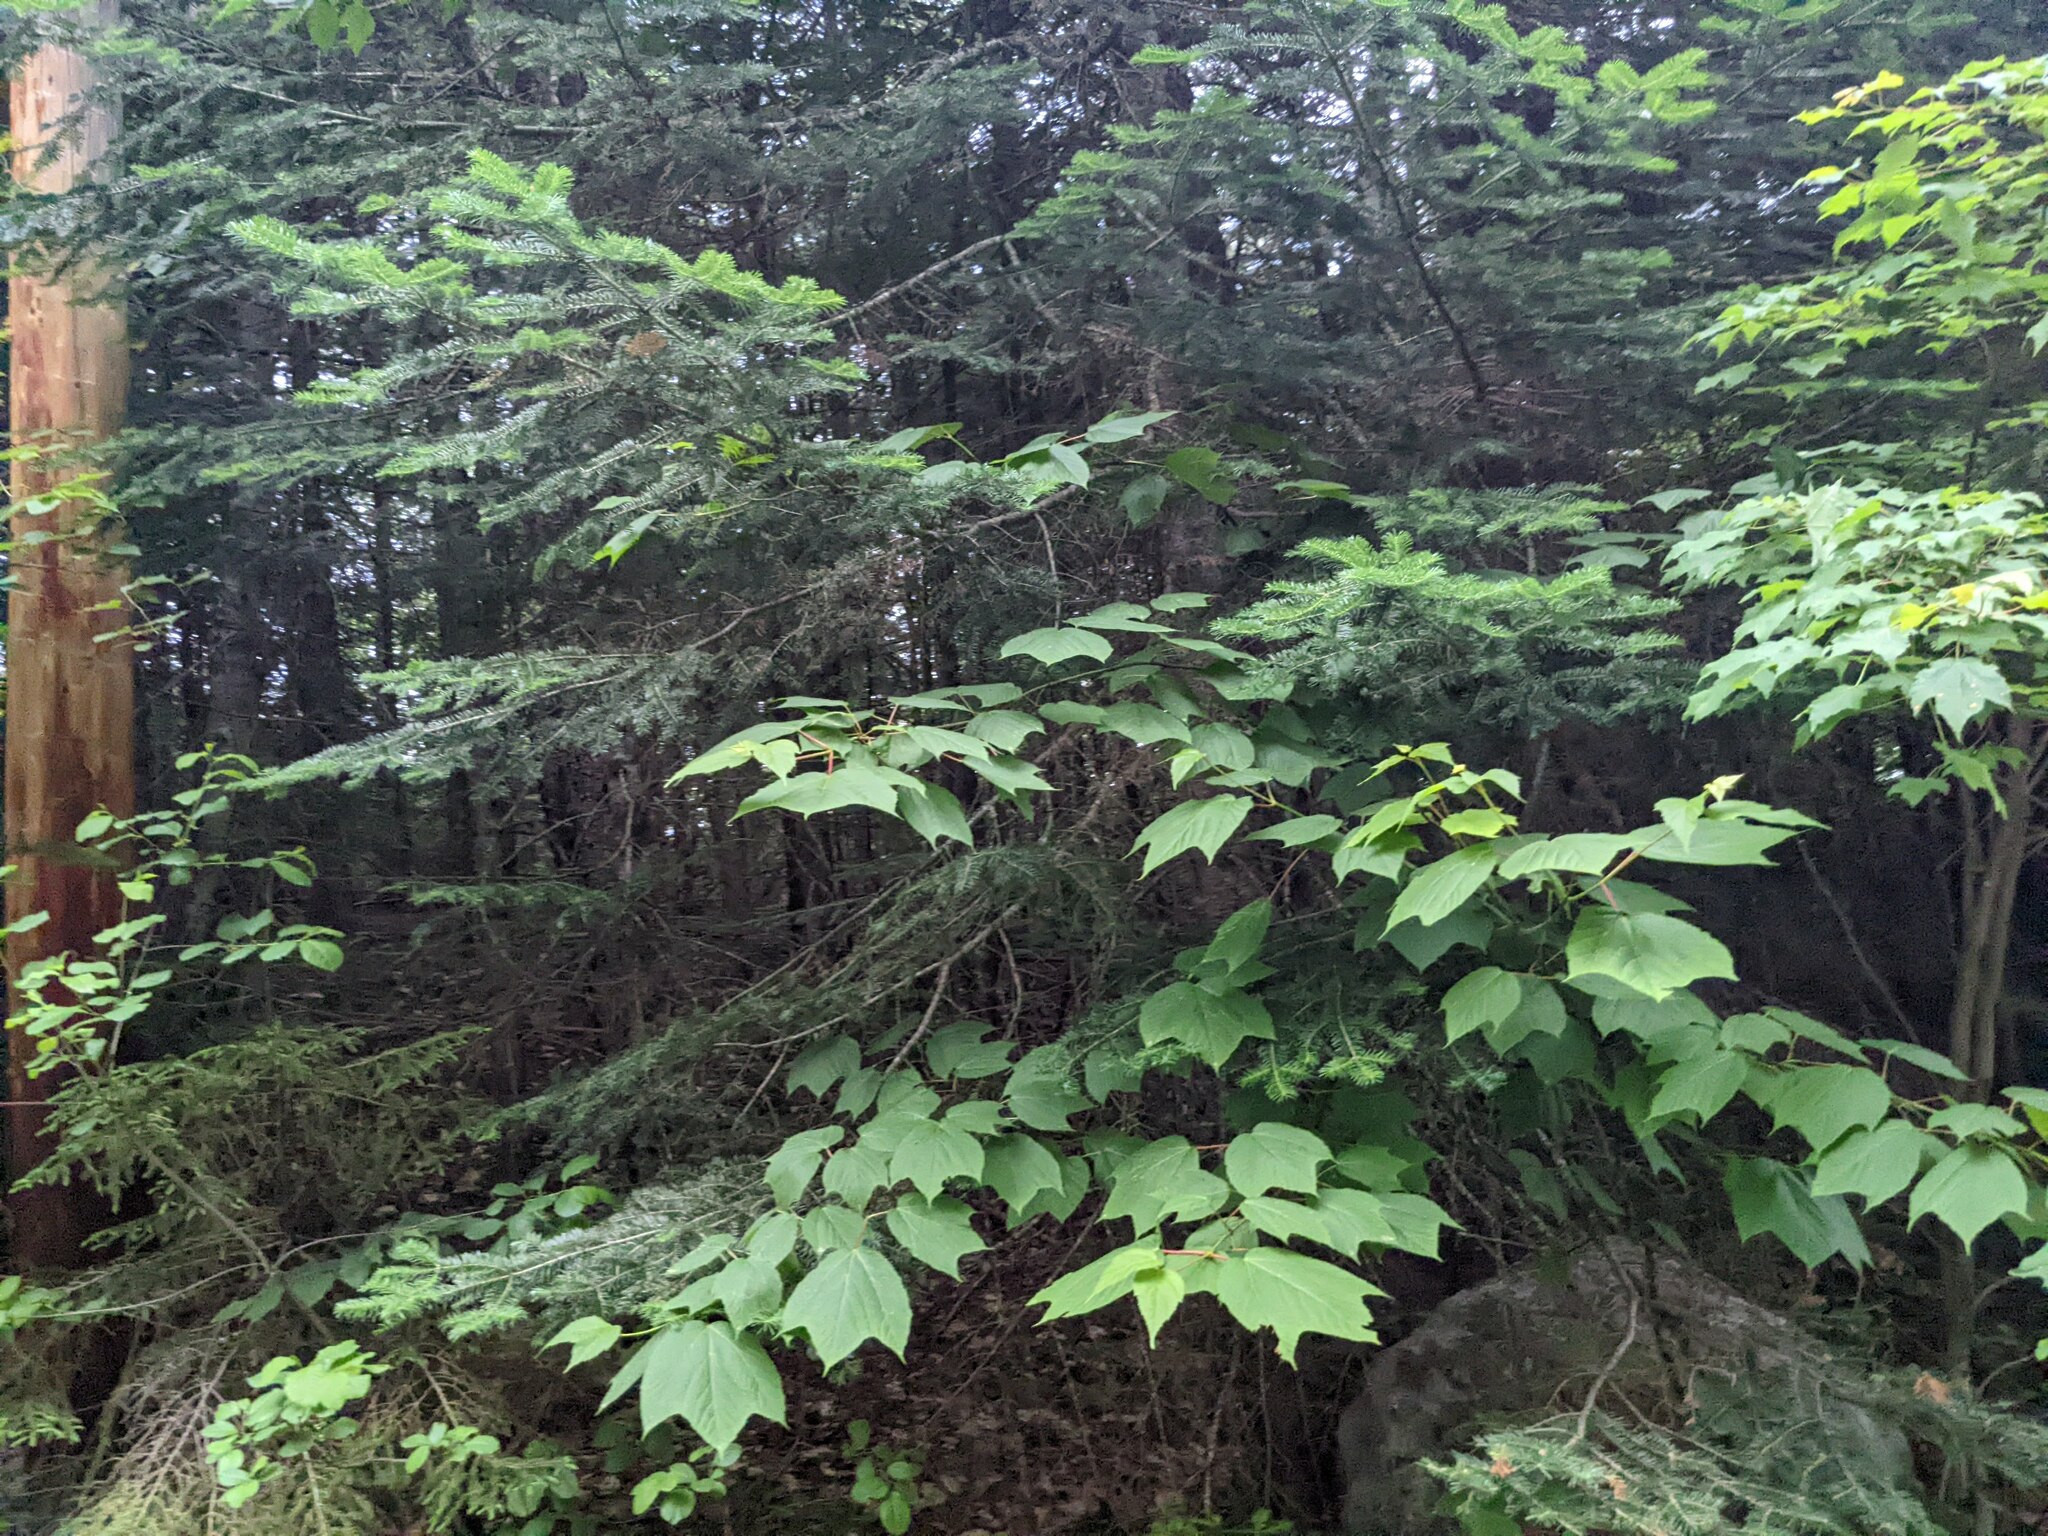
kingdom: Plantae
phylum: Tracheophyta
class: Magnoliopsida
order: Sapindales
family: Sapindaceae
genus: Acer
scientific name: Acer pensylvanicum
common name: Moosewood
